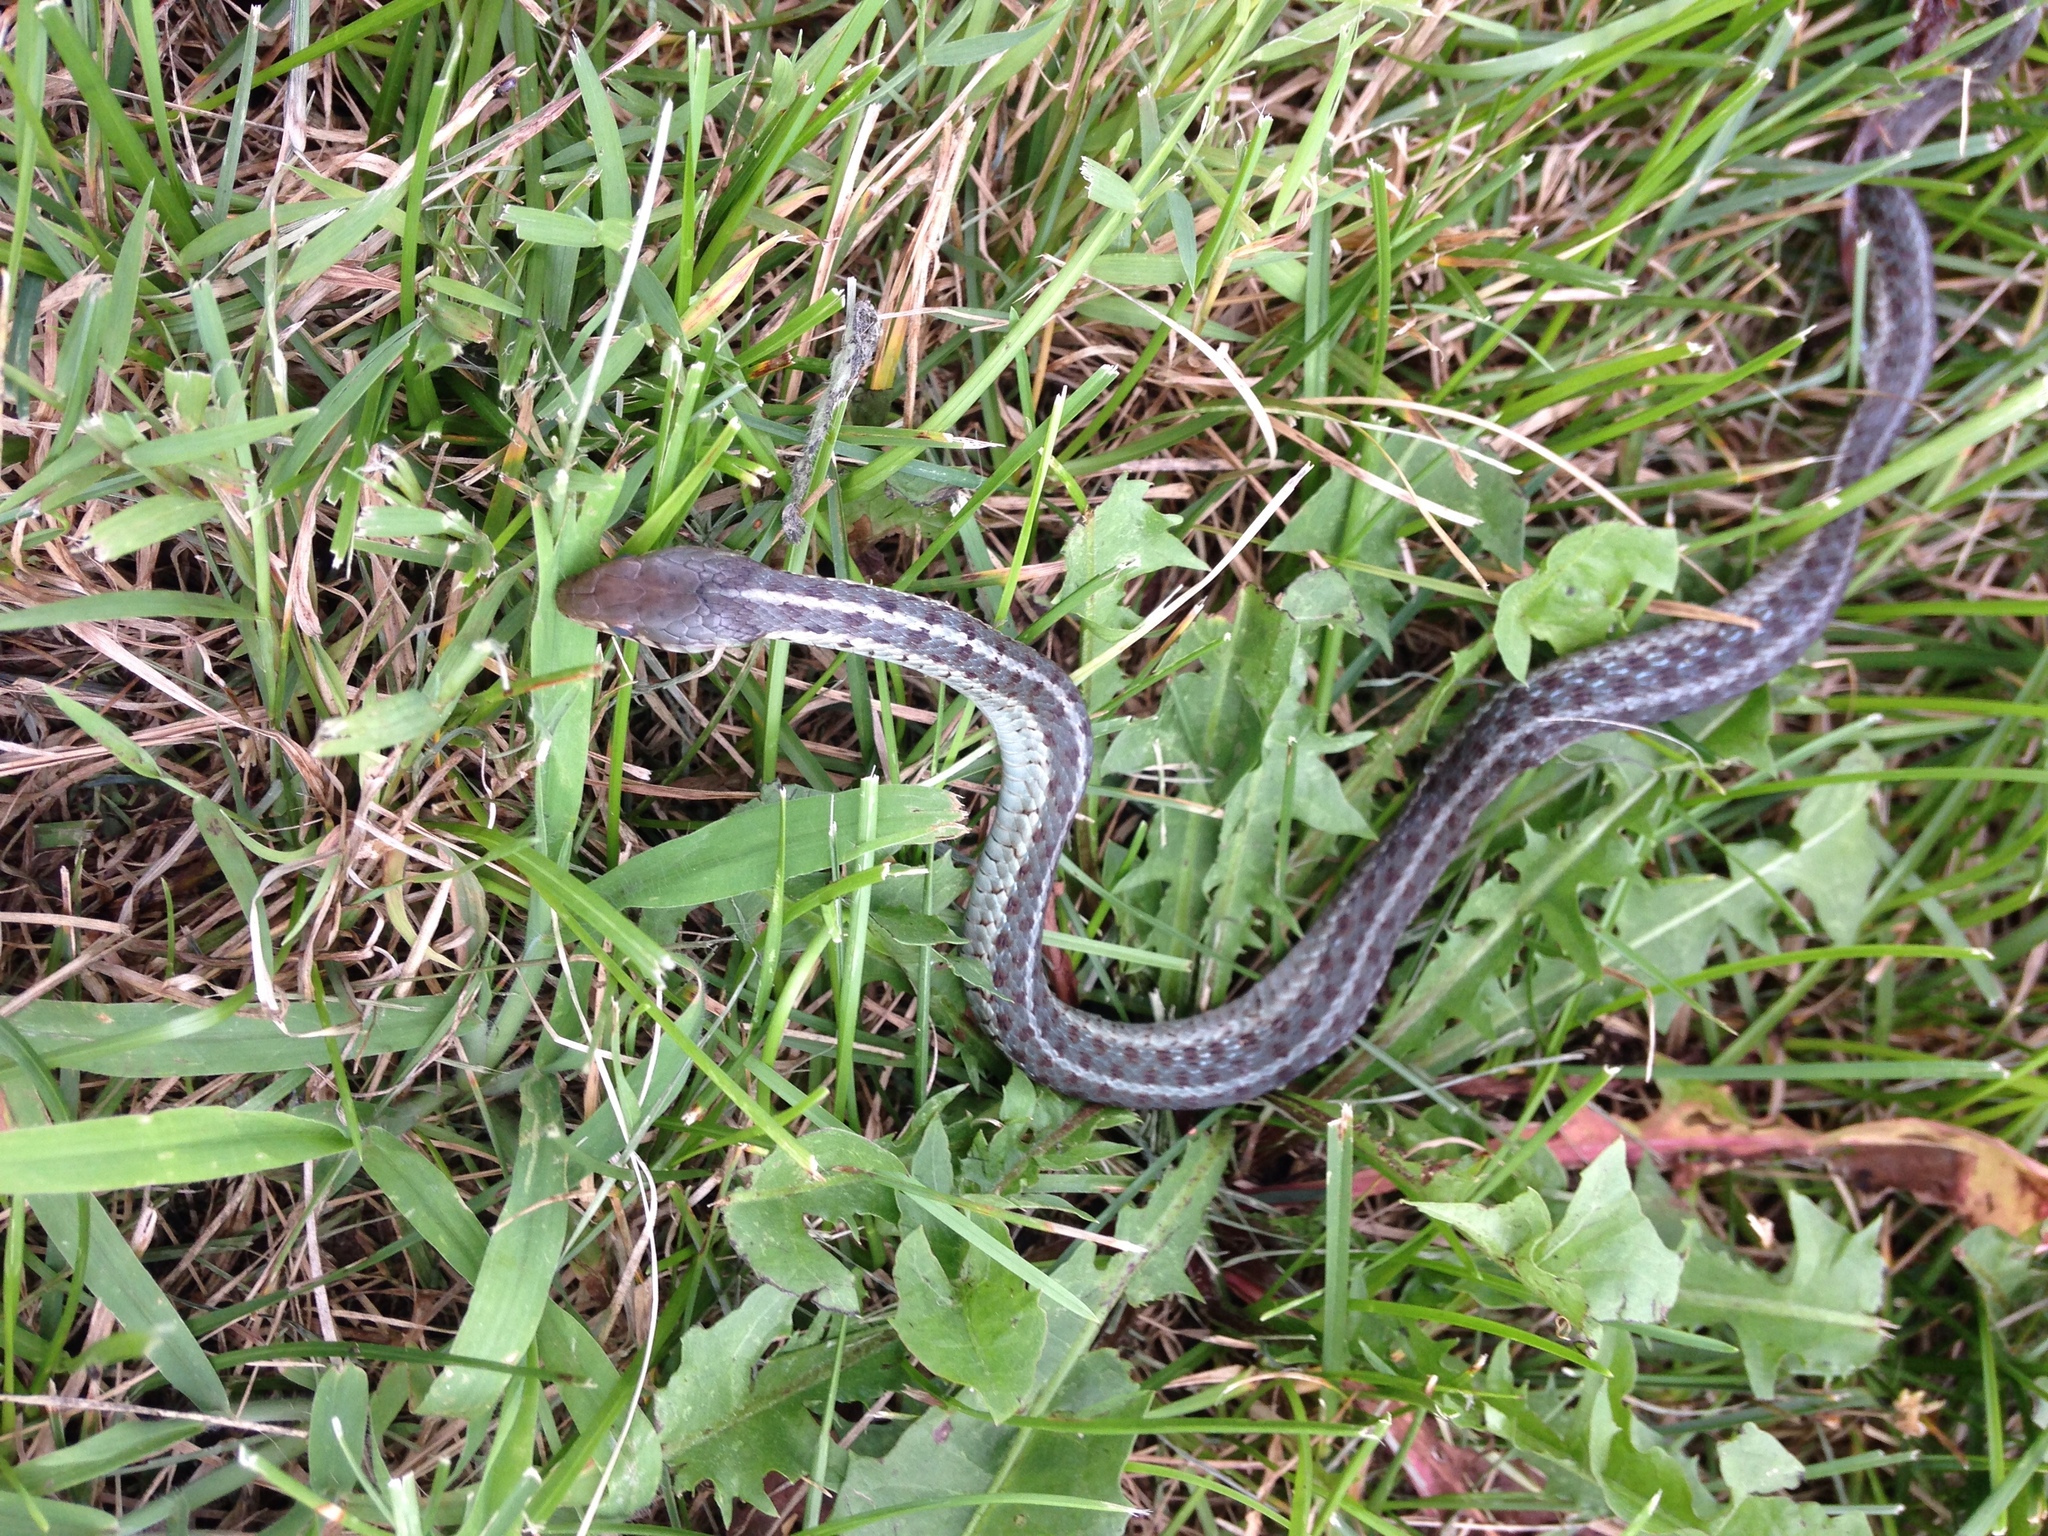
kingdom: Animalia
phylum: Chordata
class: Squamata
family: Colubridae
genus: Thamnophis
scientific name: Thamnophis sirtalis
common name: Common garter snake
